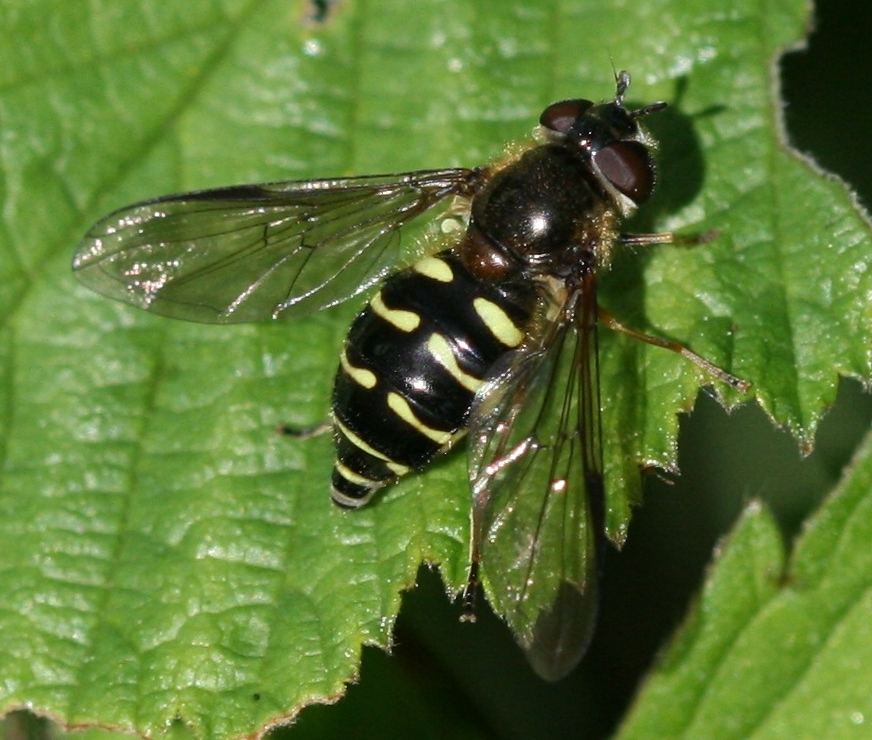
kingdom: Animalia
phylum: Arthropoda
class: Insecta
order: Diptera
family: Syrphidae
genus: Dasysyrphus
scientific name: Dasysyrphus
